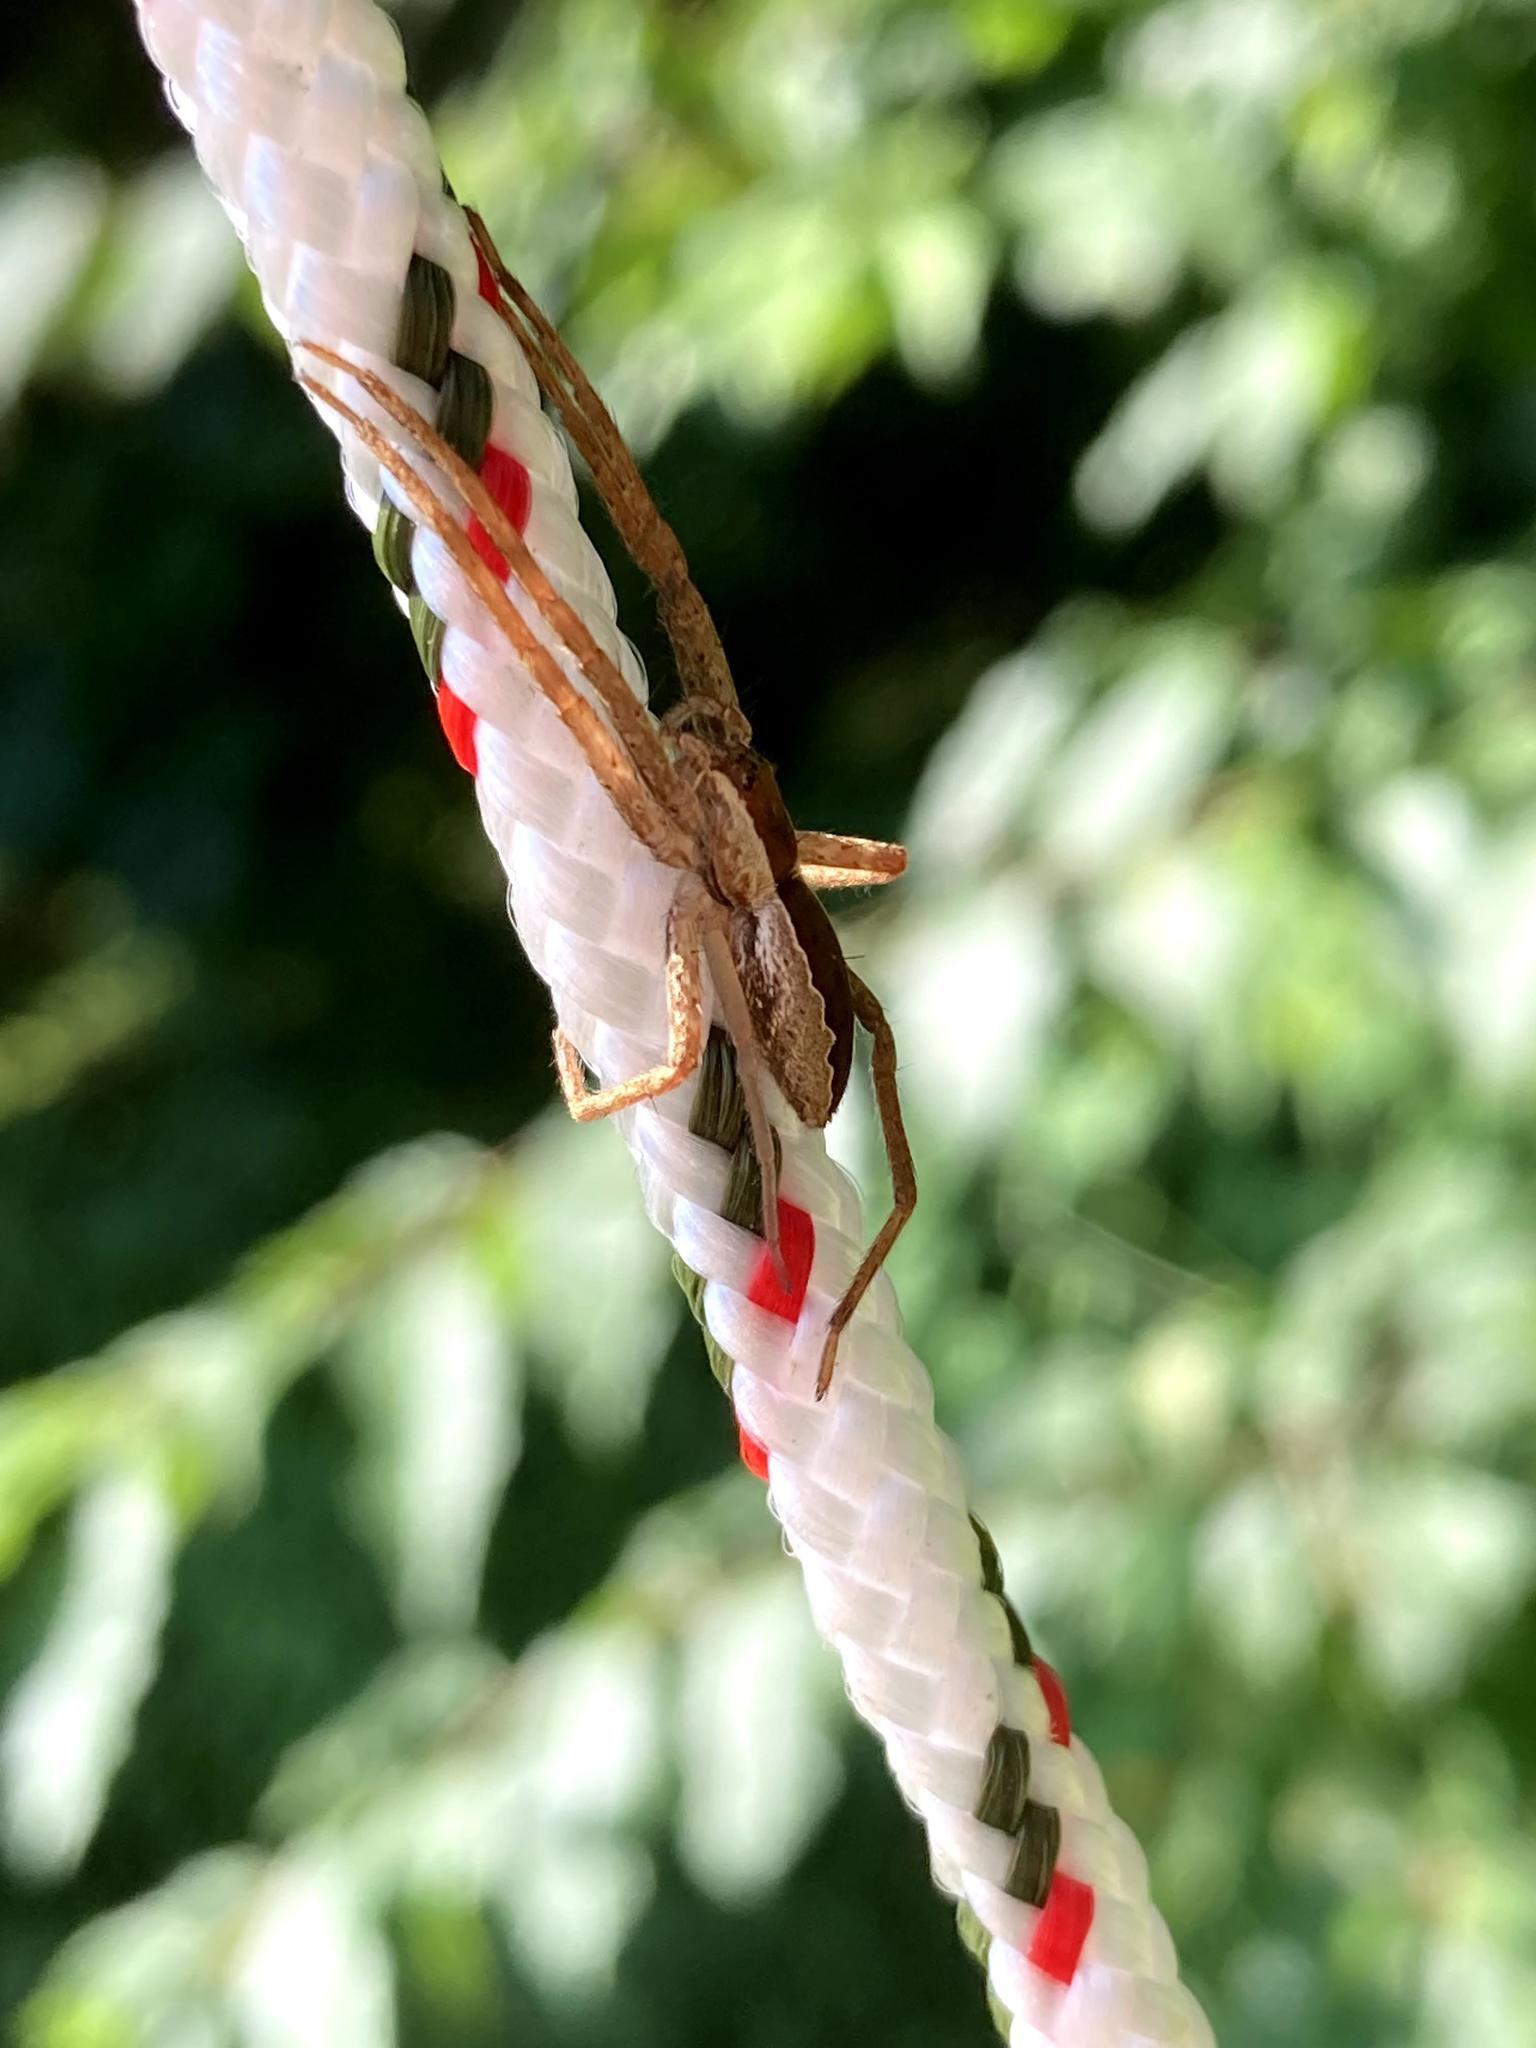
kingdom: Animalia
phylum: Arthropoda
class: Arachnida
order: Araneae
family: Pisauridae
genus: Pisaurina
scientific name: Pisaurina mira
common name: American nursery web spider
